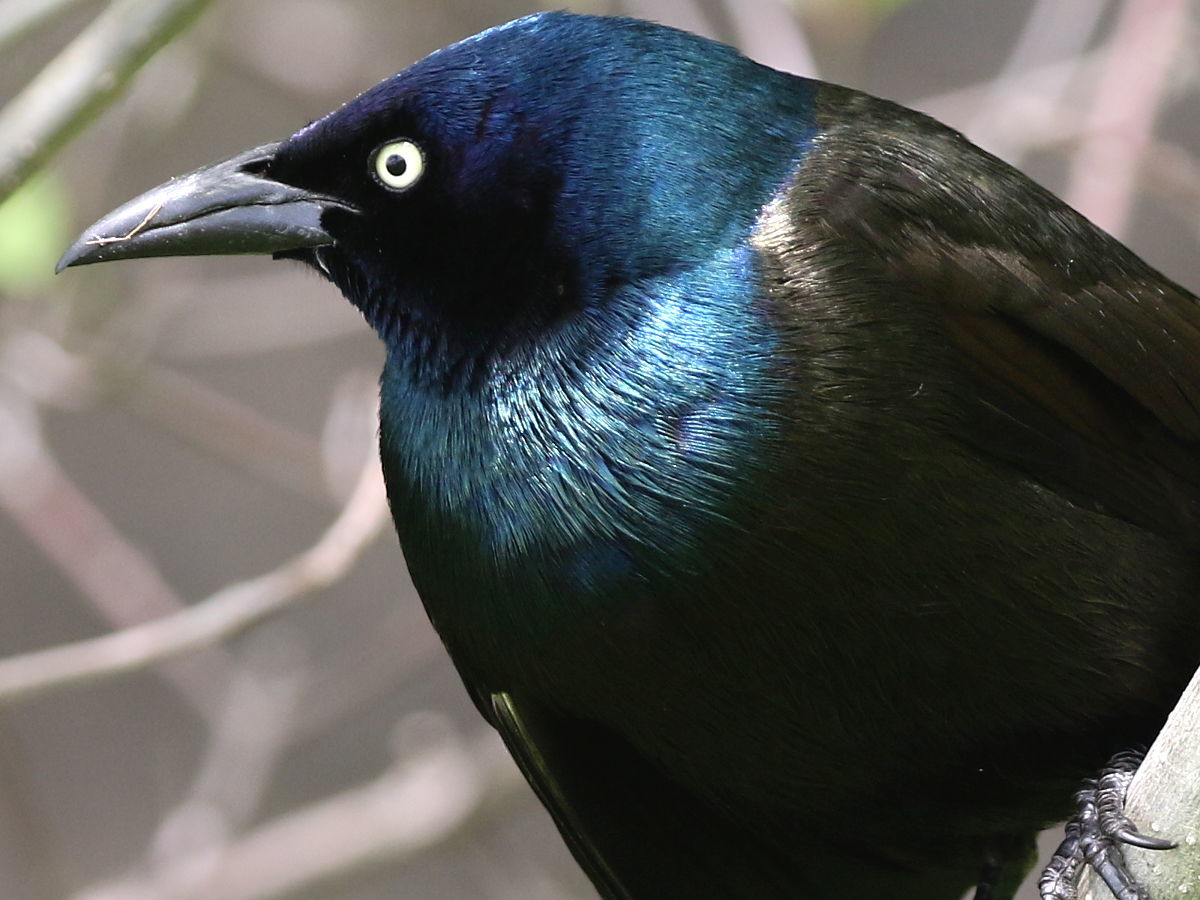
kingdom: Animalia
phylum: Chordata
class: Aves
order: Passeriformes
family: Icteridae
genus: Quiscalus
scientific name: Quiscalus quiscula
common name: Common grackle
